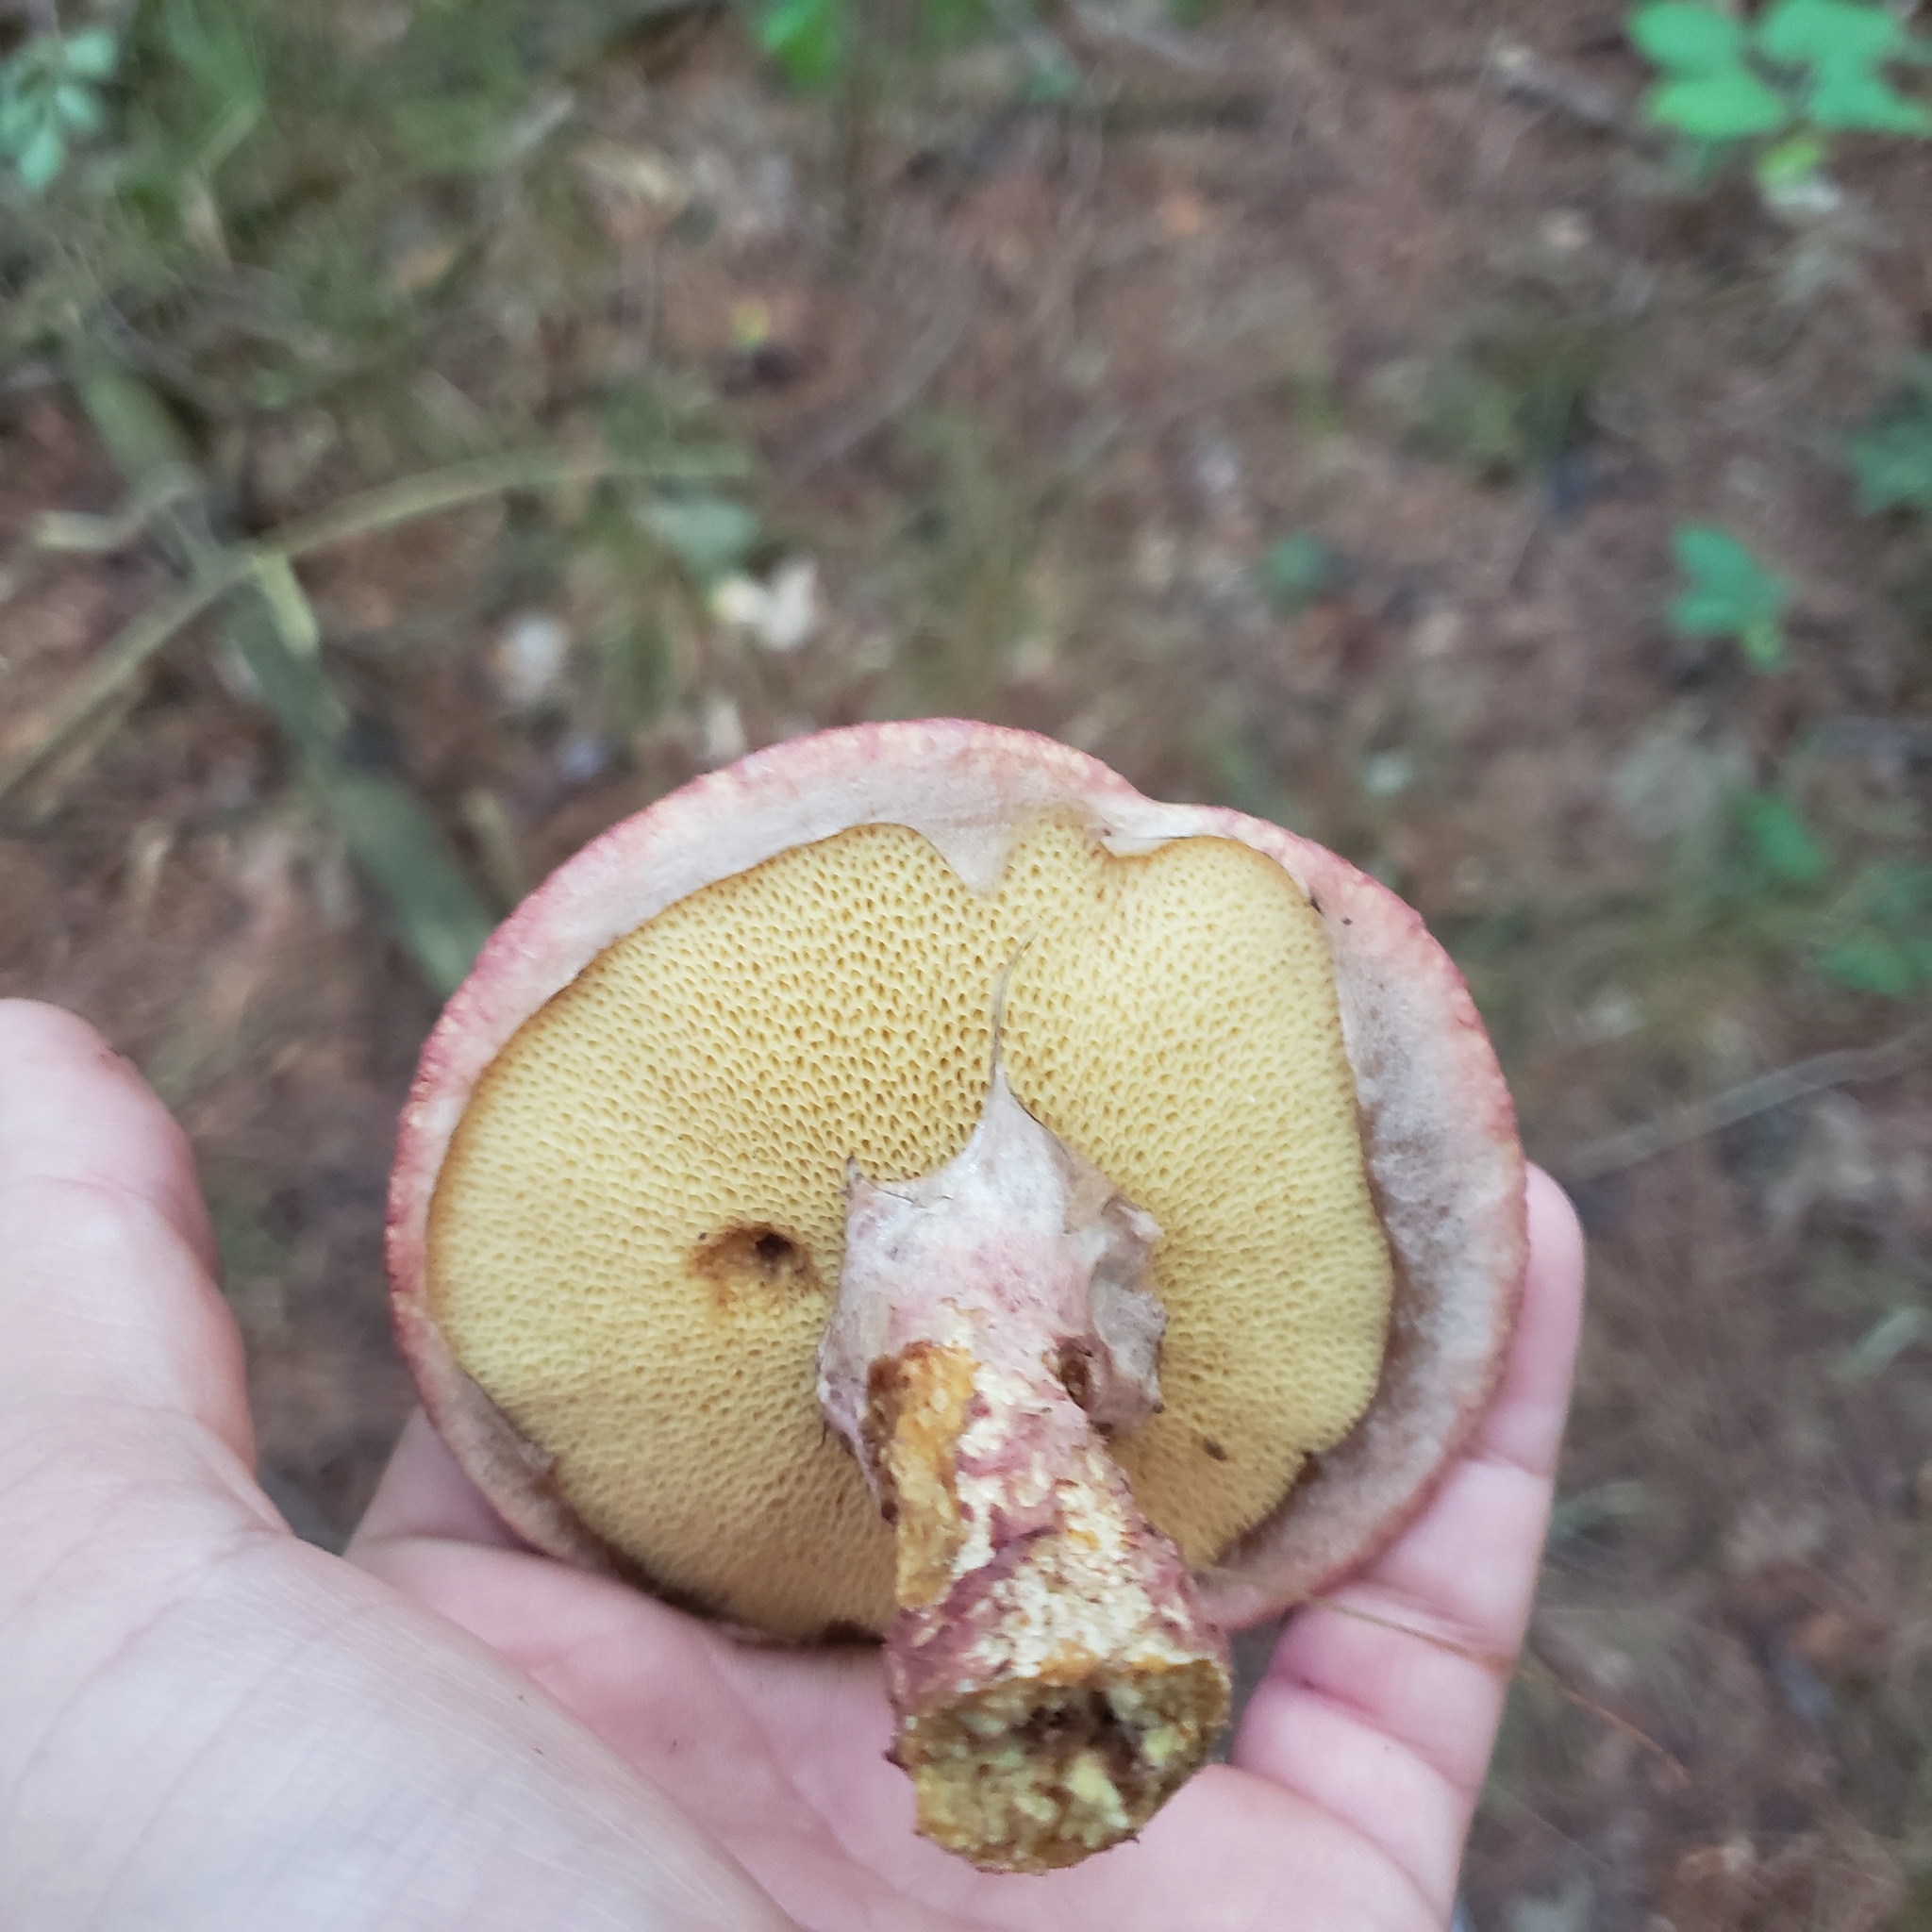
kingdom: Fungi
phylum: Basidiomycota
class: Agaricomycetes
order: Boletales
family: Suillaceae
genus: Suillus
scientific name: Suillus spraguei
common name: Painted suillus
